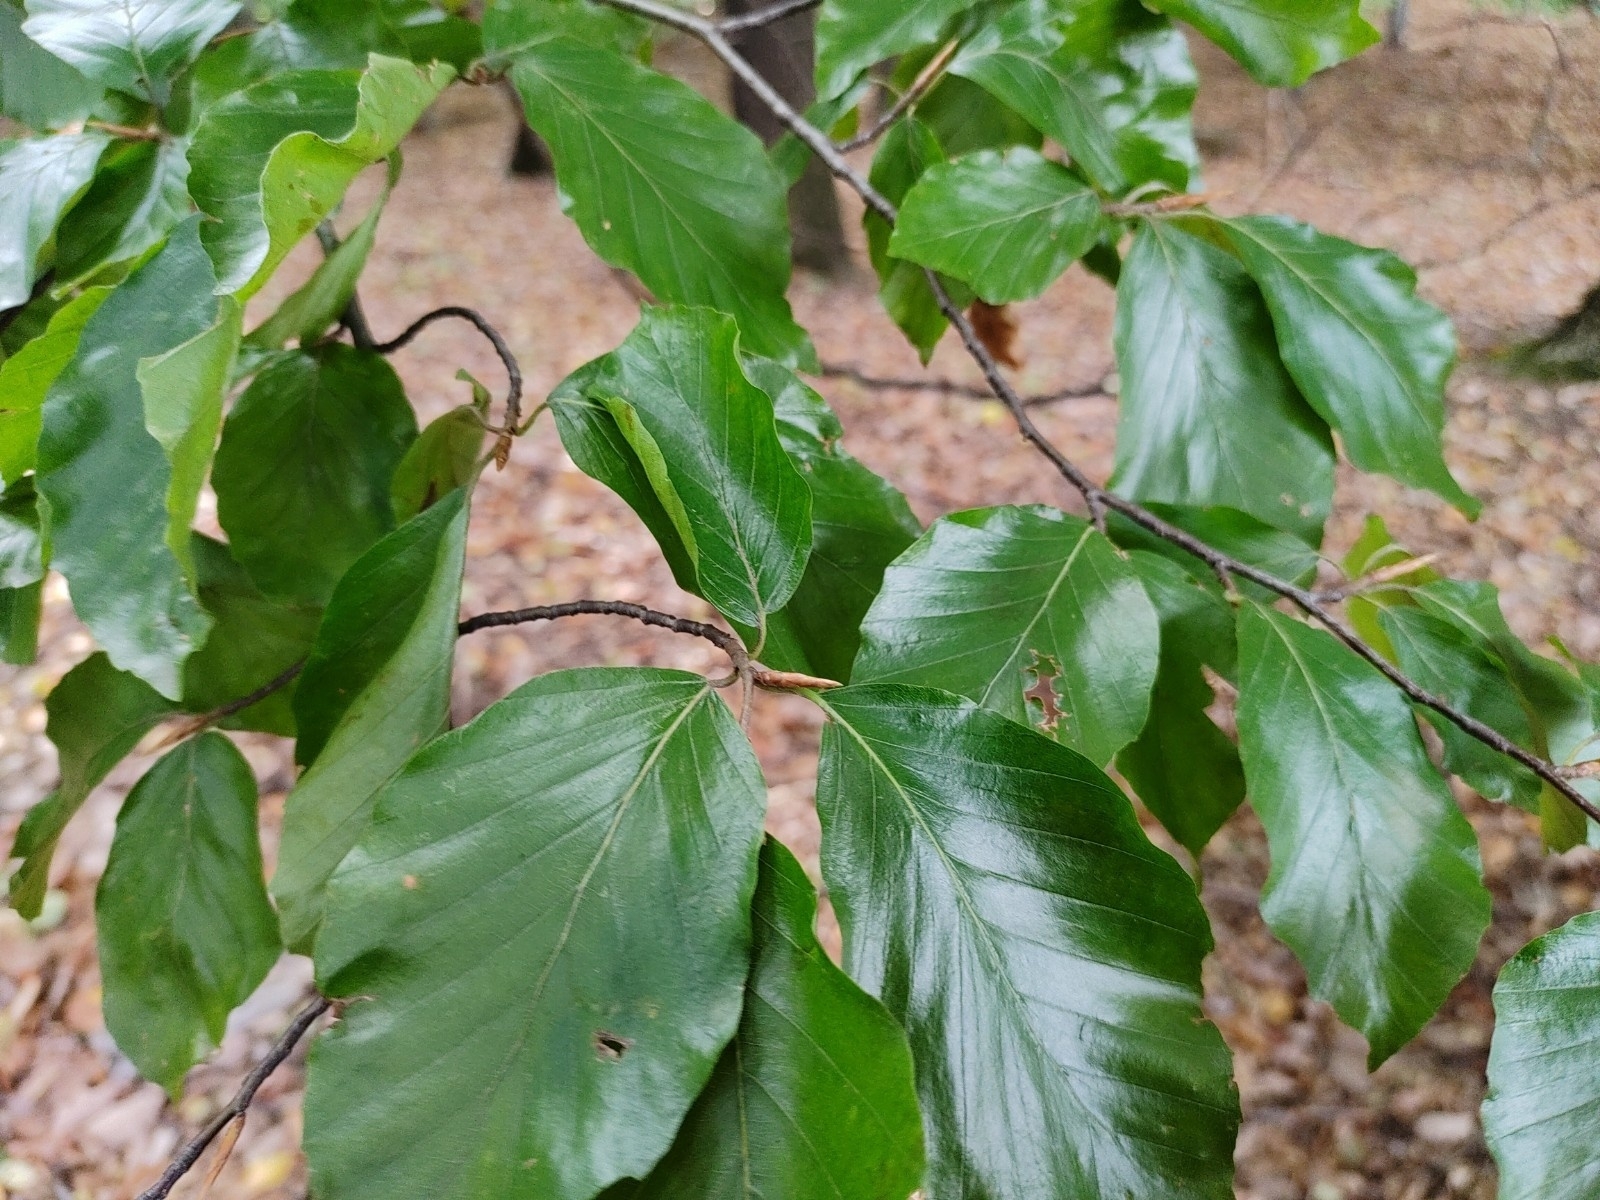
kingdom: Plantae
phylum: Tracheophyta
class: Magnoliopsida
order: Fagales
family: Fagaceae
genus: Fagus
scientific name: Fagus sylvatica
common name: Beech
